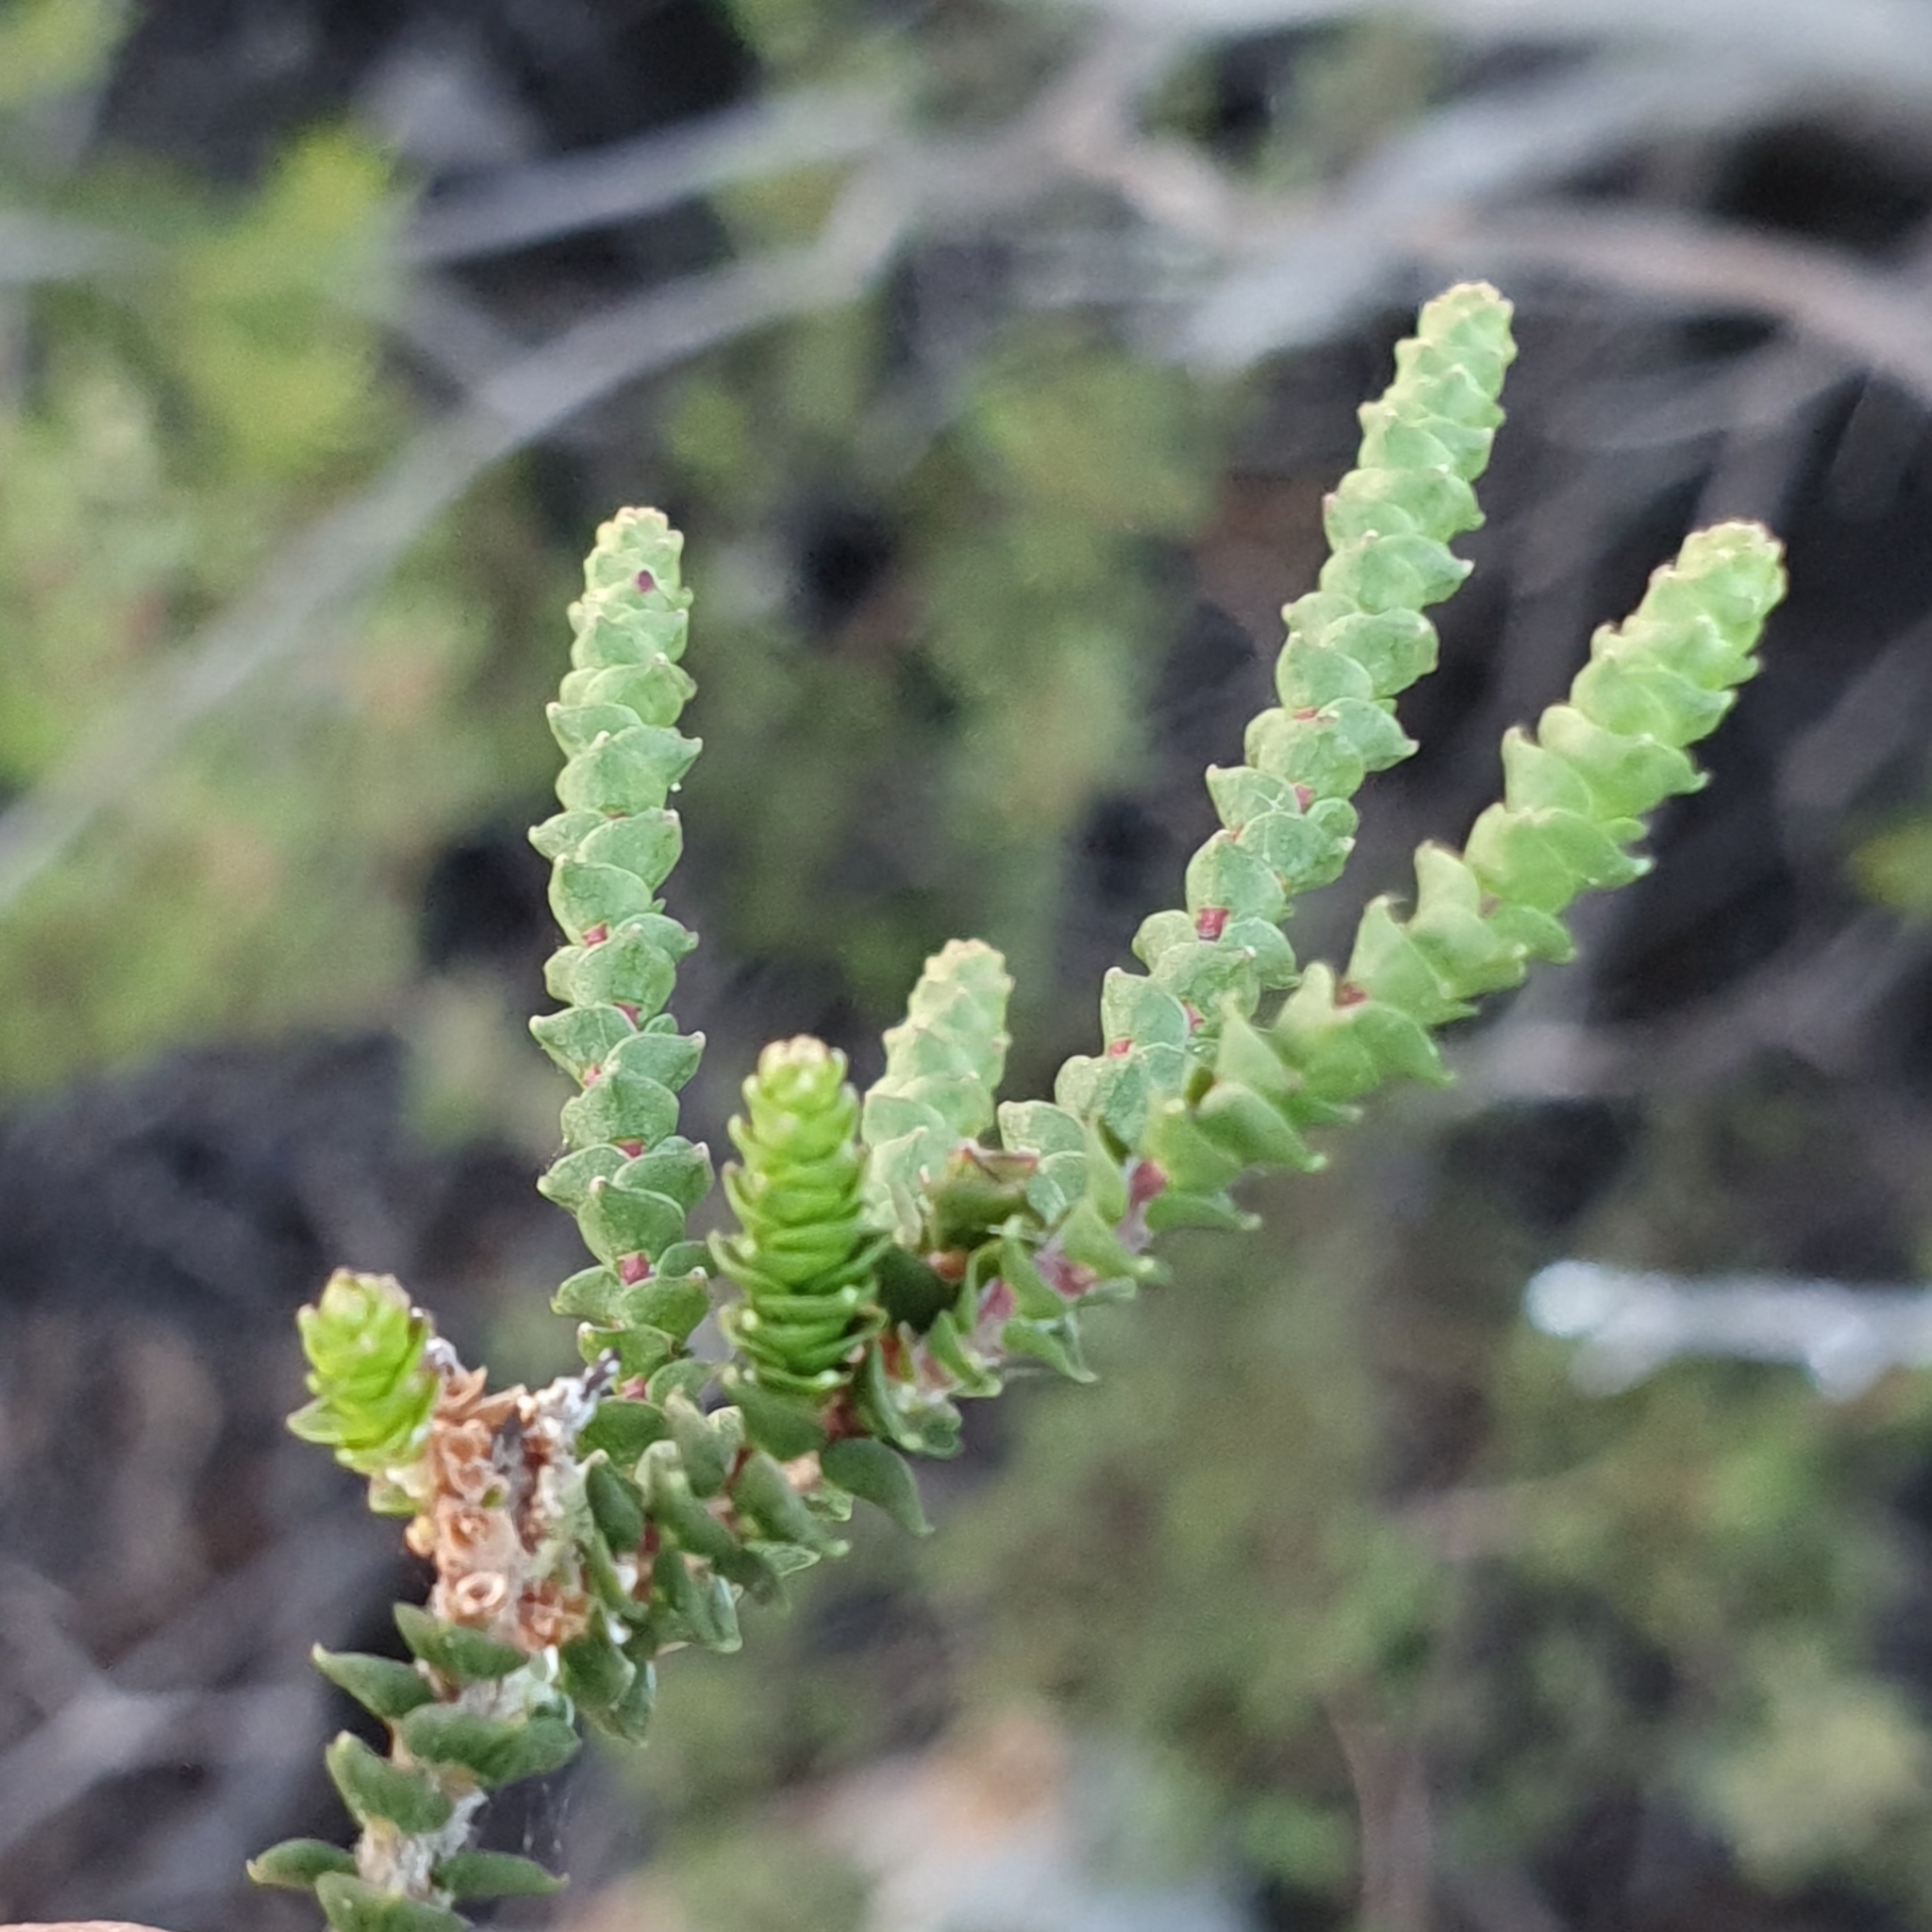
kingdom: Plantae
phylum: Tracheophyta
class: Magnoliopsida
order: Ericales
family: Ericaceae
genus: Epacris
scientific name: Epacris microphylla
